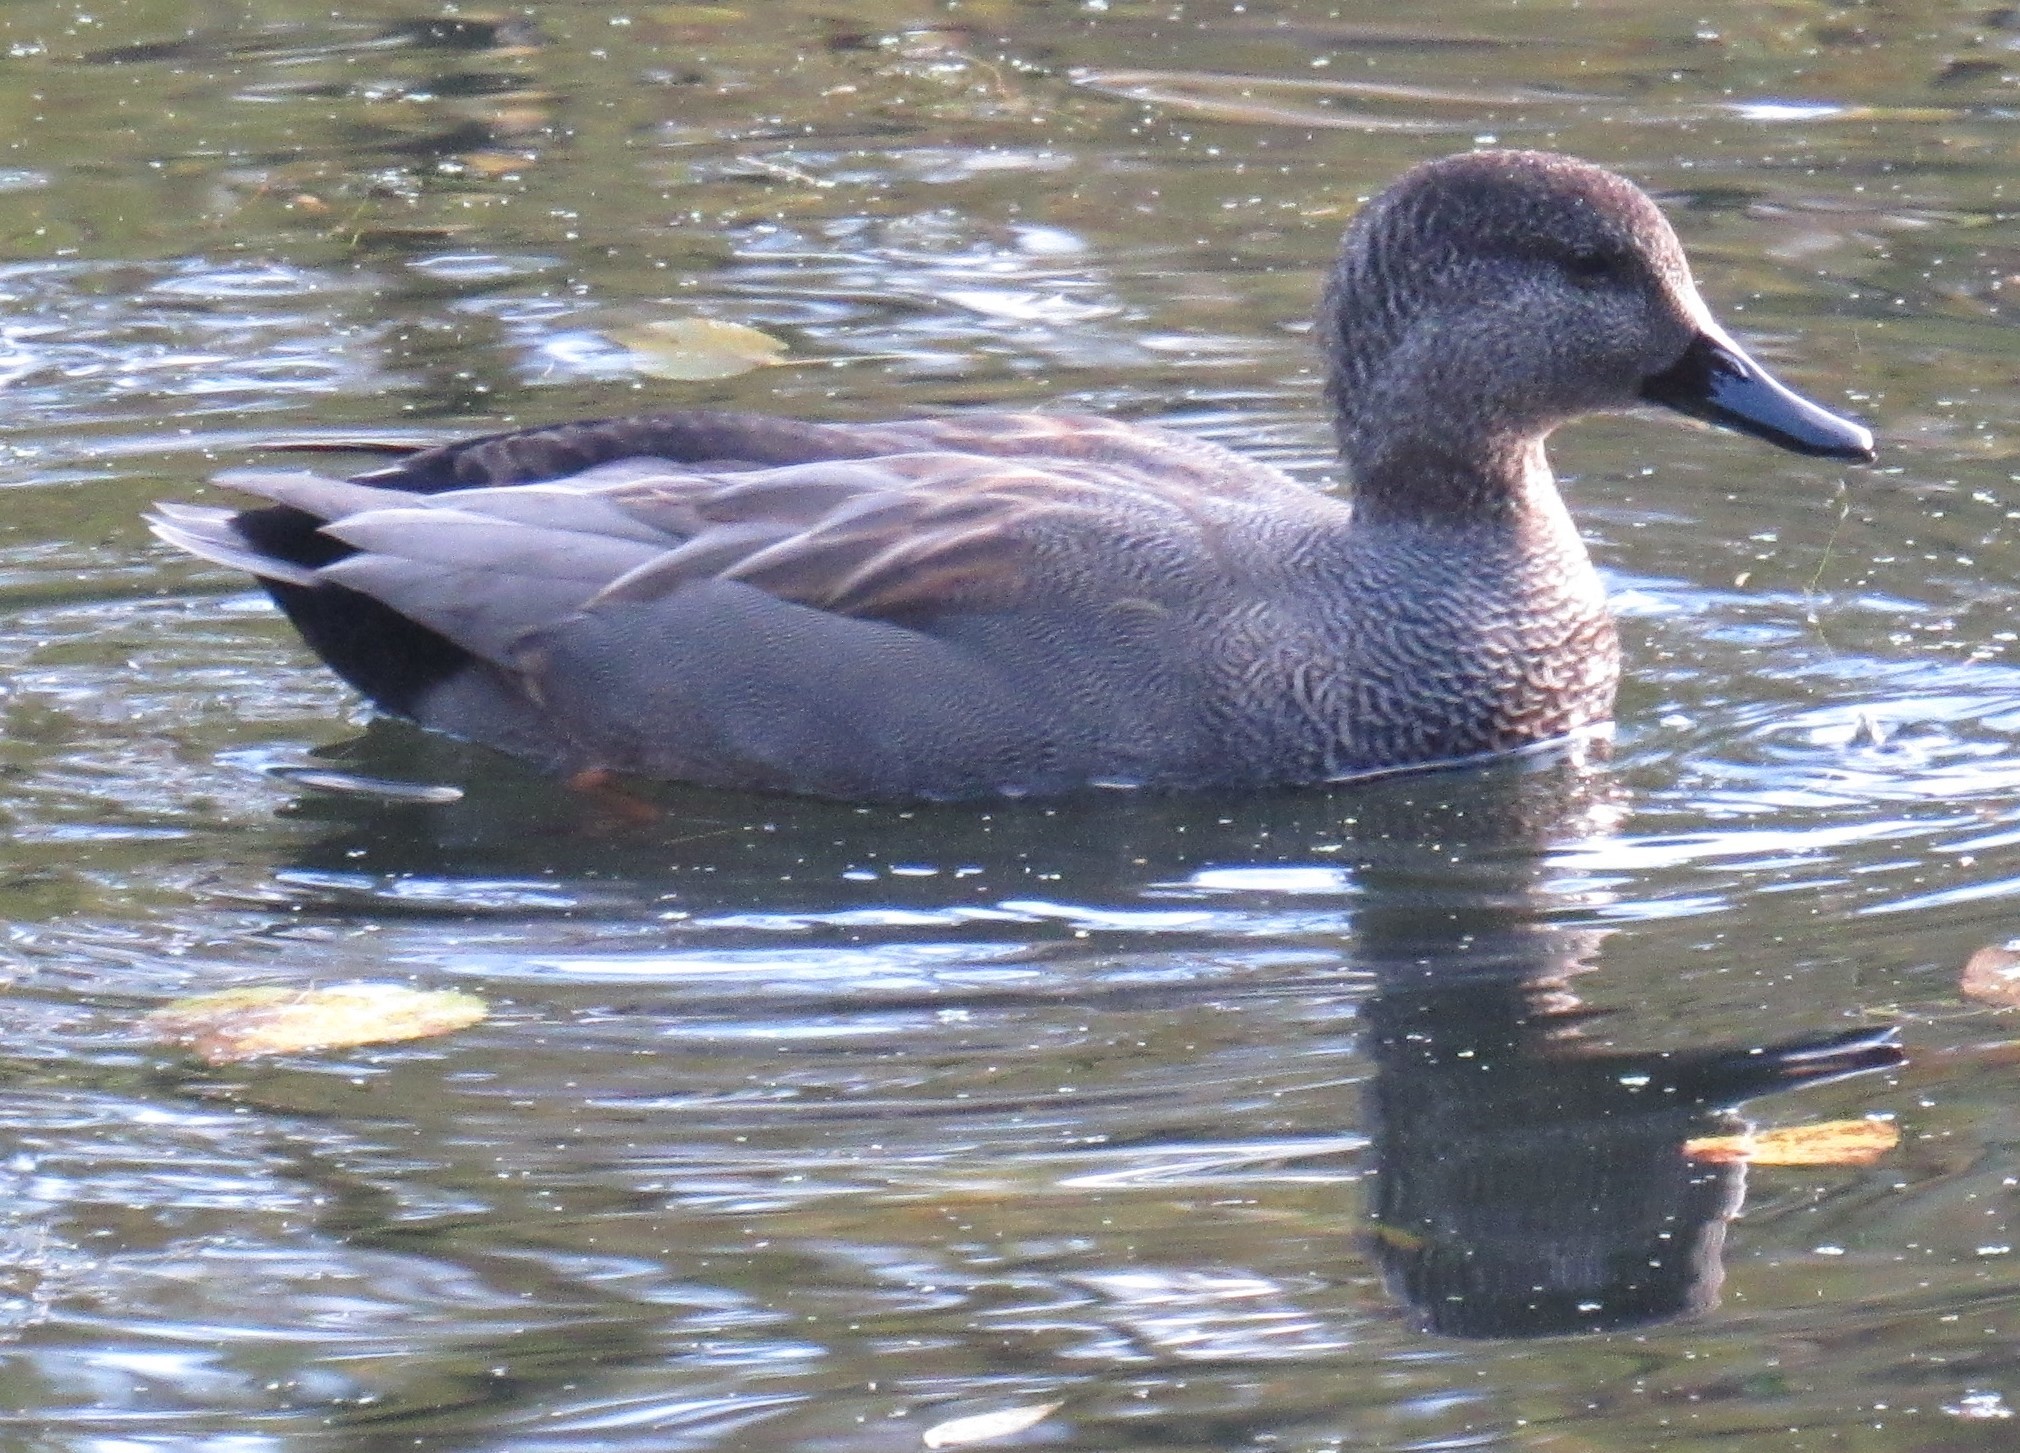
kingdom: Animalia
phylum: Chordata
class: Aves
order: Anseriformes
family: Anatidae
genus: Mareca
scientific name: Mareca strepera
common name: Gadwall
